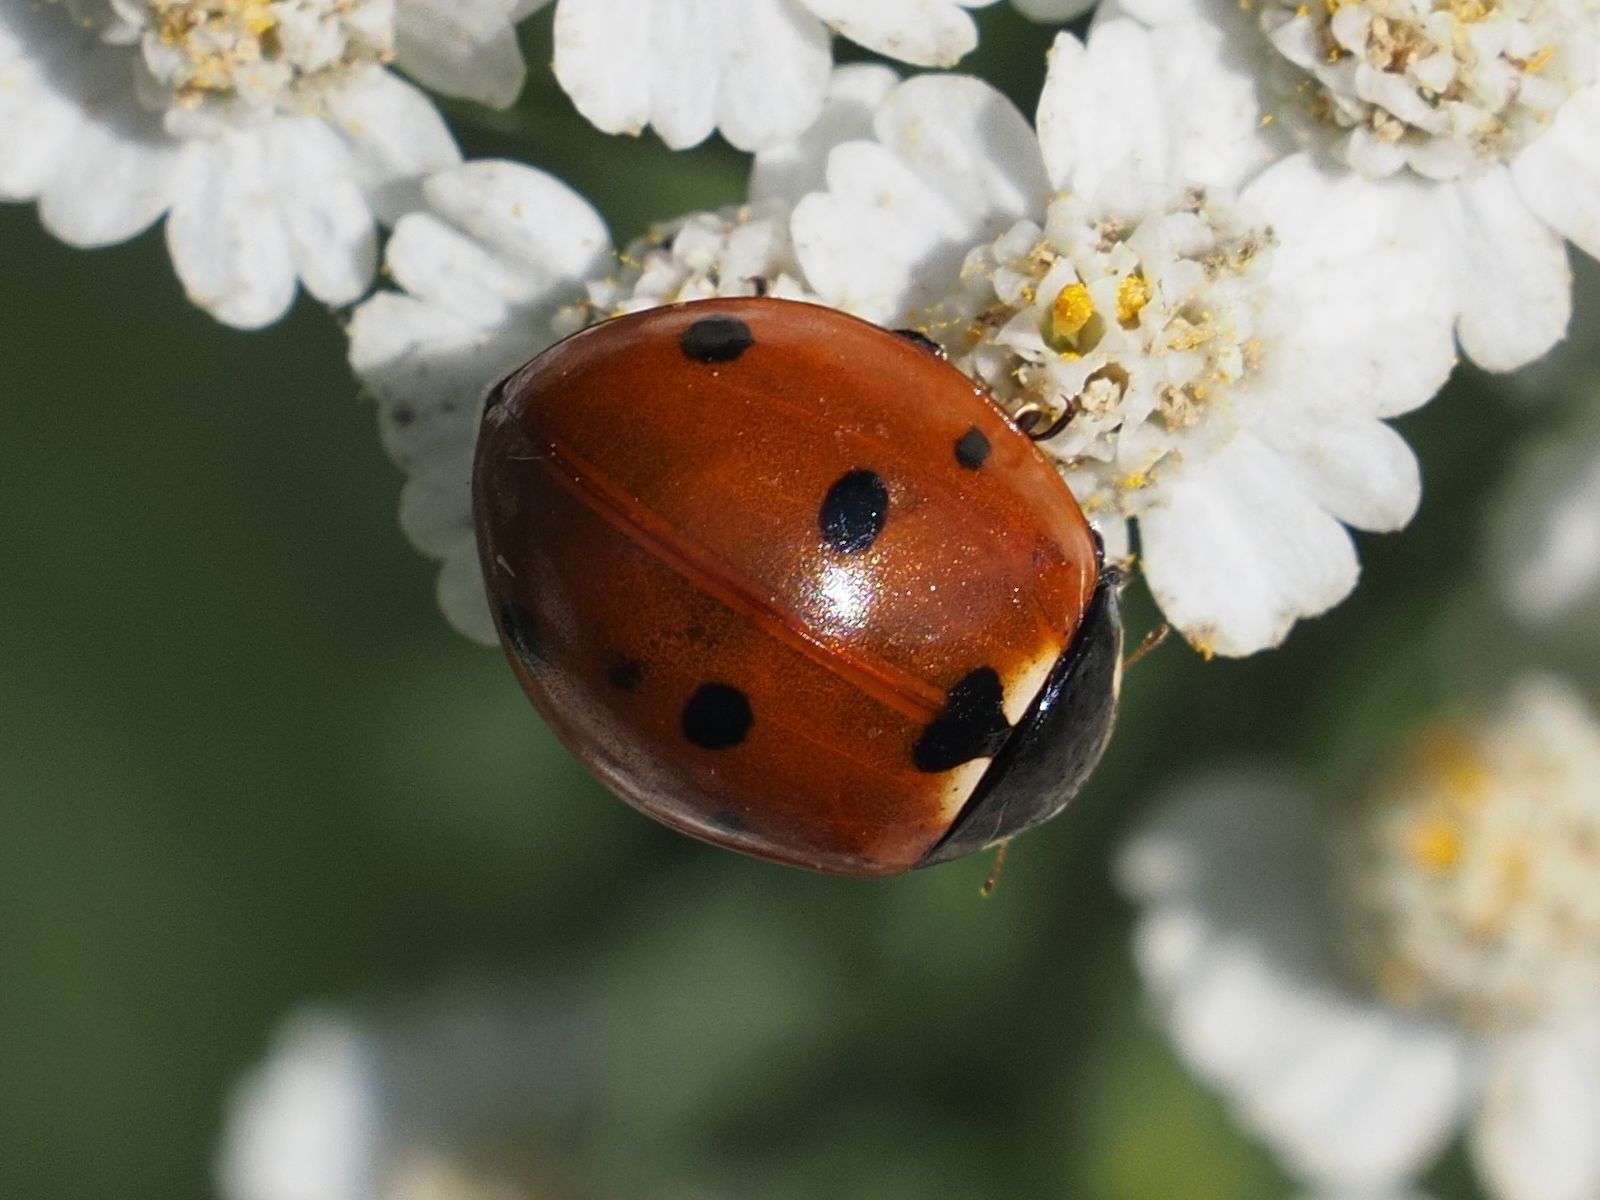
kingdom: Animalia
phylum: Arthropoda
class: Insecta
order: Coleoptera
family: Coccinellidae
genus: Coccinella
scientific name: Coccinella septempunctata
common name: Sevenspotted lady beetle
